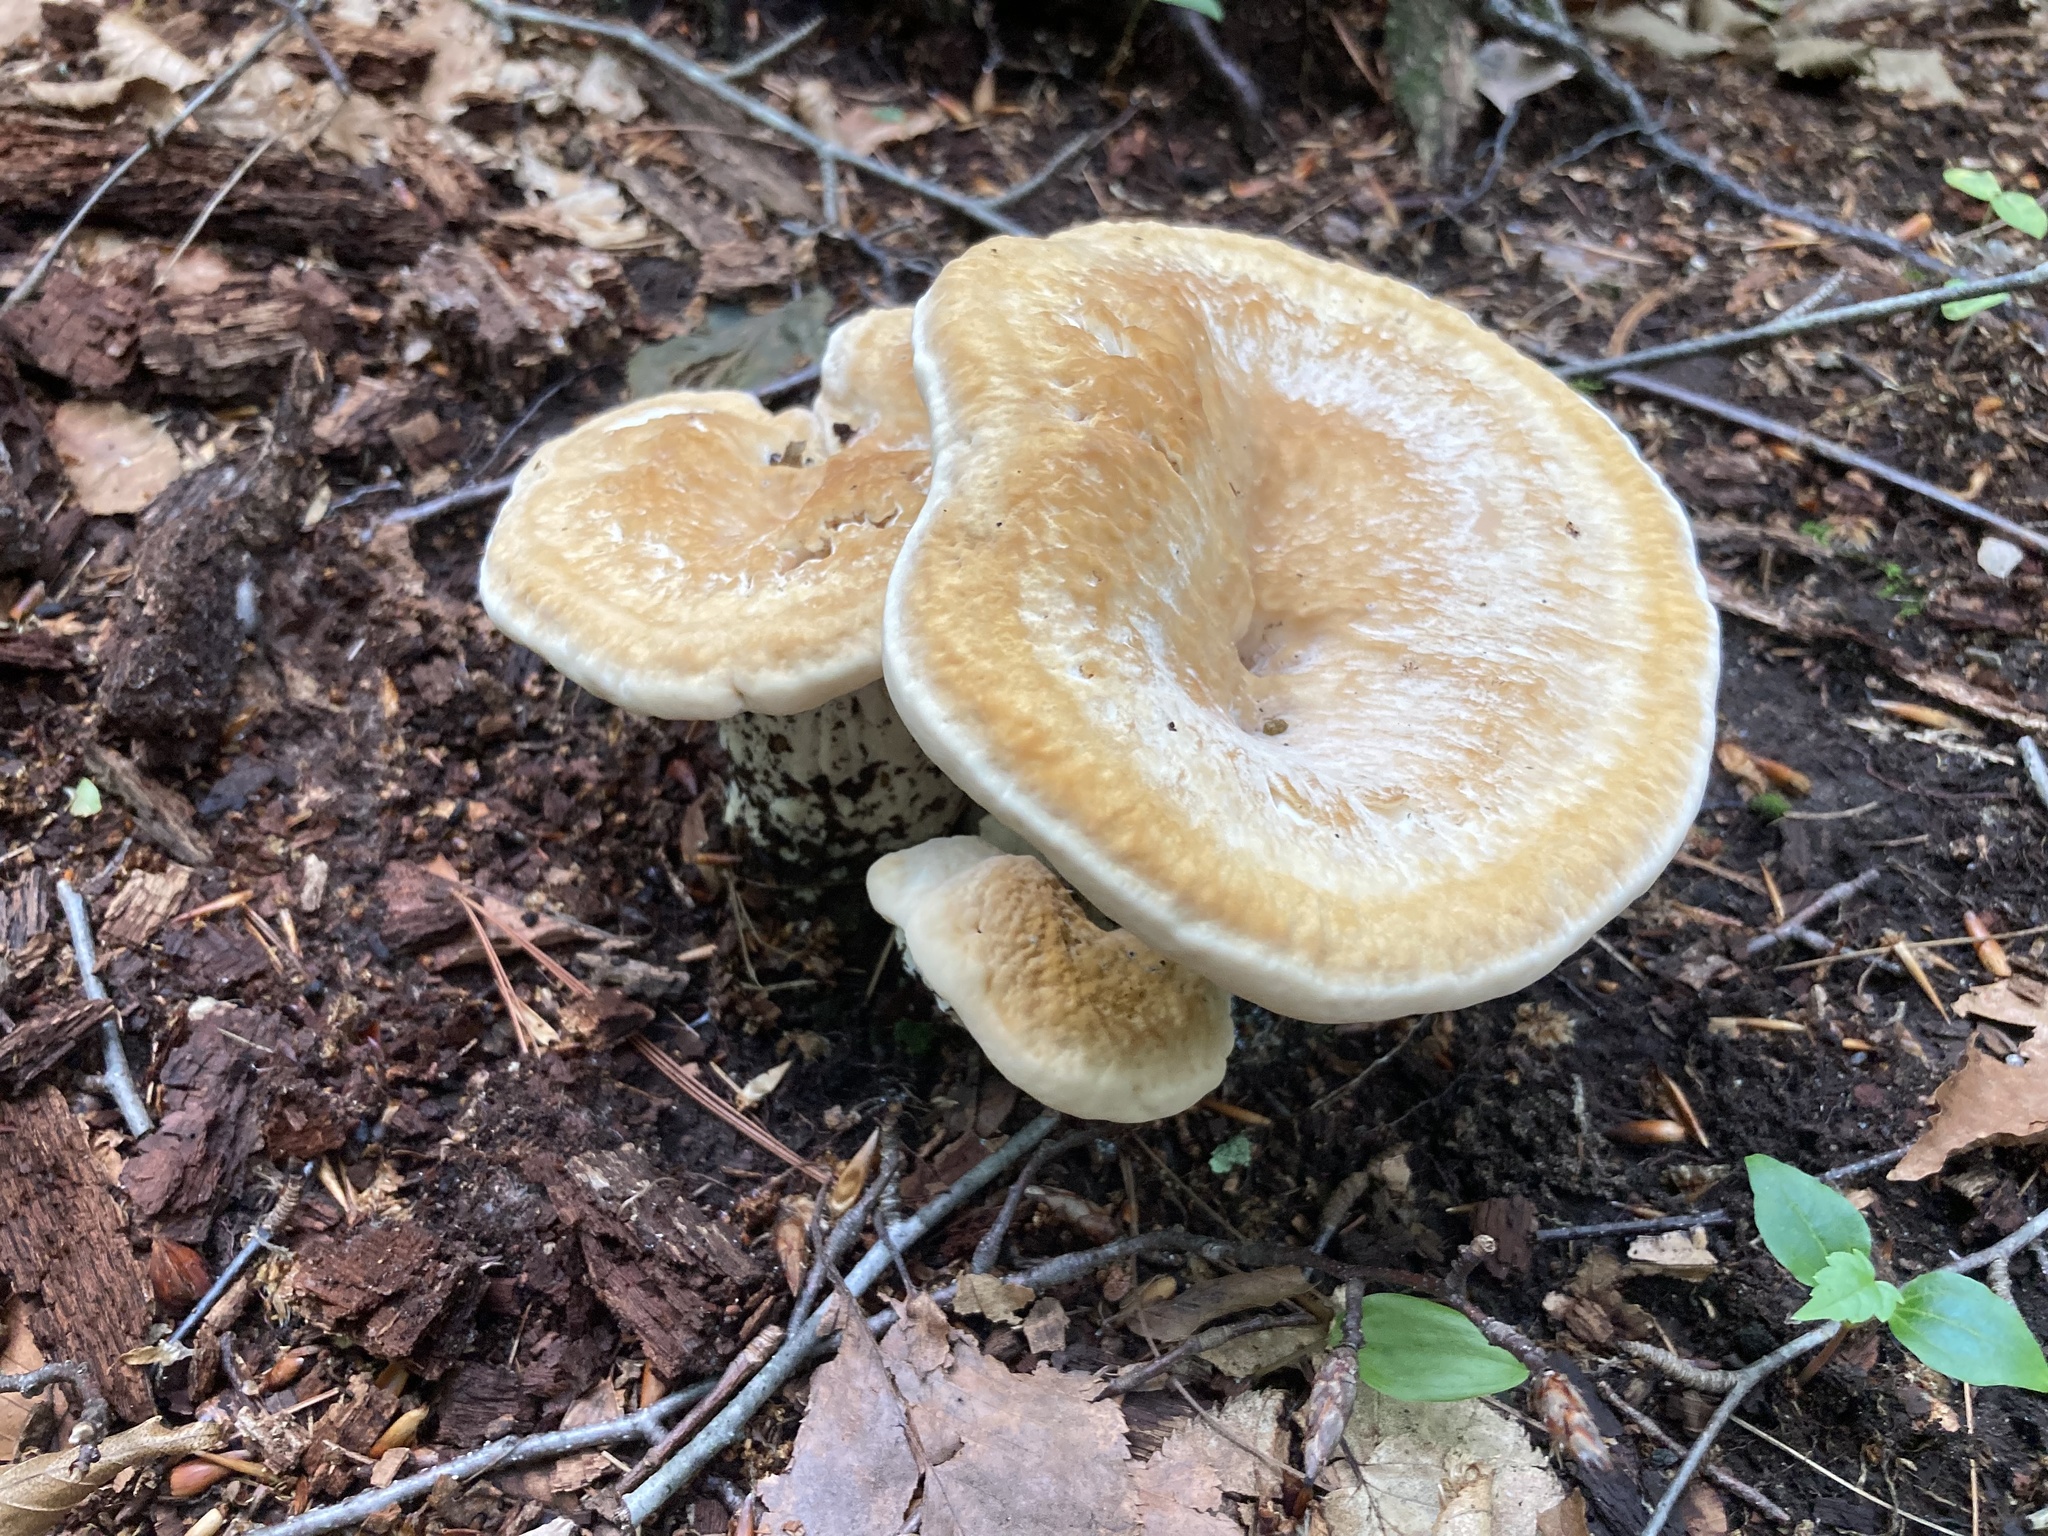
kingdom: Fungi
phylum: Basidiomycota
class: Agaricomycetes
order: Russulales
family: Bondarzewiaceae
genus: Bondarzewia
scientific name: Bondarzewia berkeleyi
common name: Berkeley's polypore
